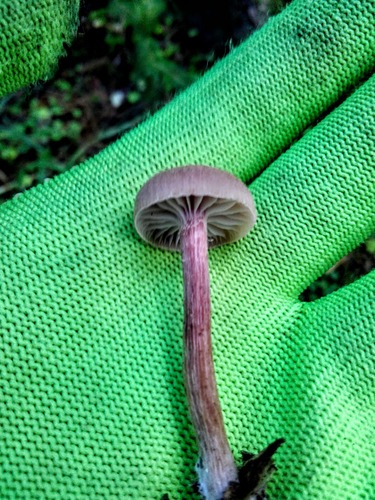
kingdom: Fungi
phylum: Basidiomycota
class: Agaricomycetes
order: Agaricales
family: Hydnangiaceae
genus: Laccaria
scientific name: Laccaria
